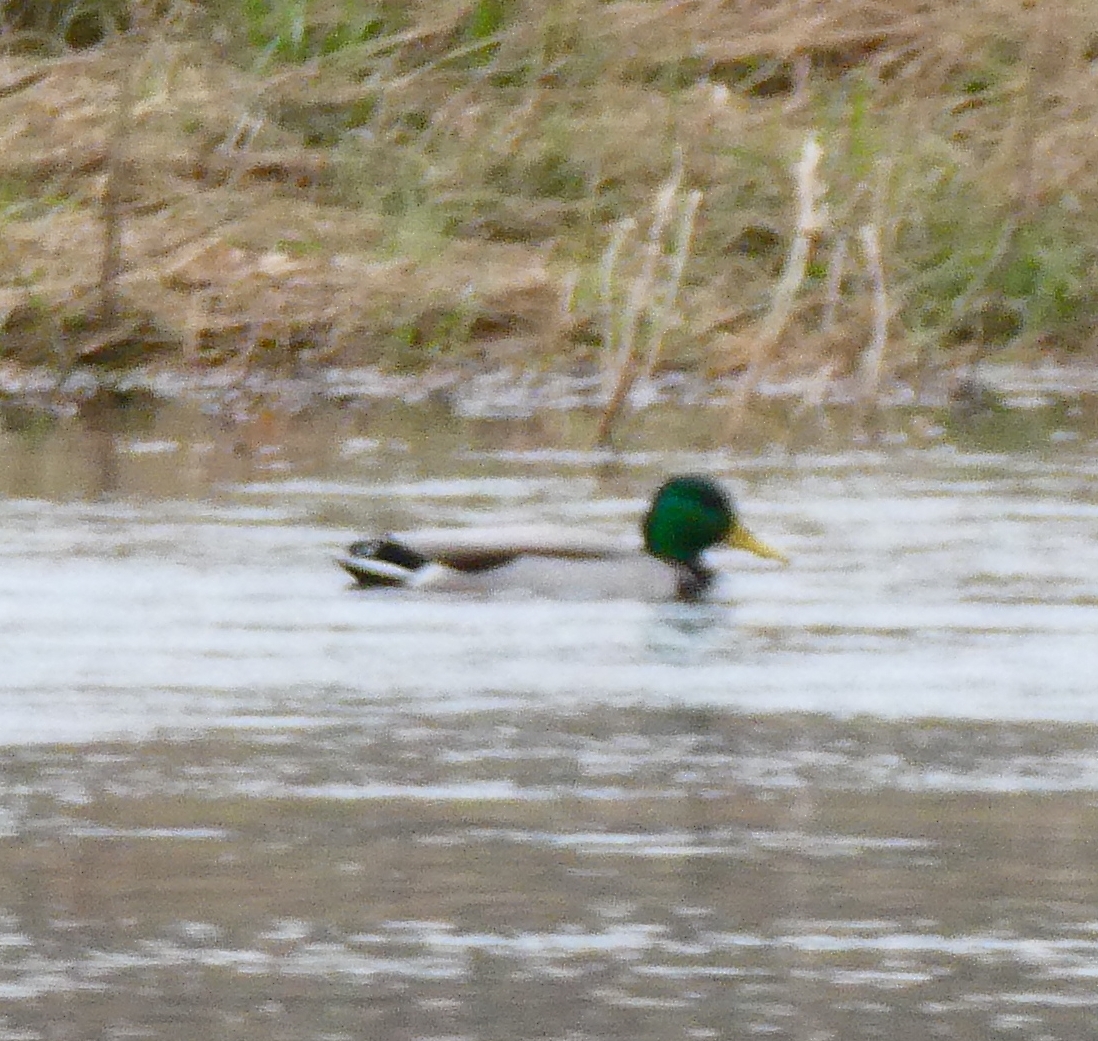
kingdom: Animalia
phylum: Chordata
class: Aves
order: Anseriformes
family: Anatidae
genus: Anas
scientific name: Anas platyrhynchos
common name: Mallard
